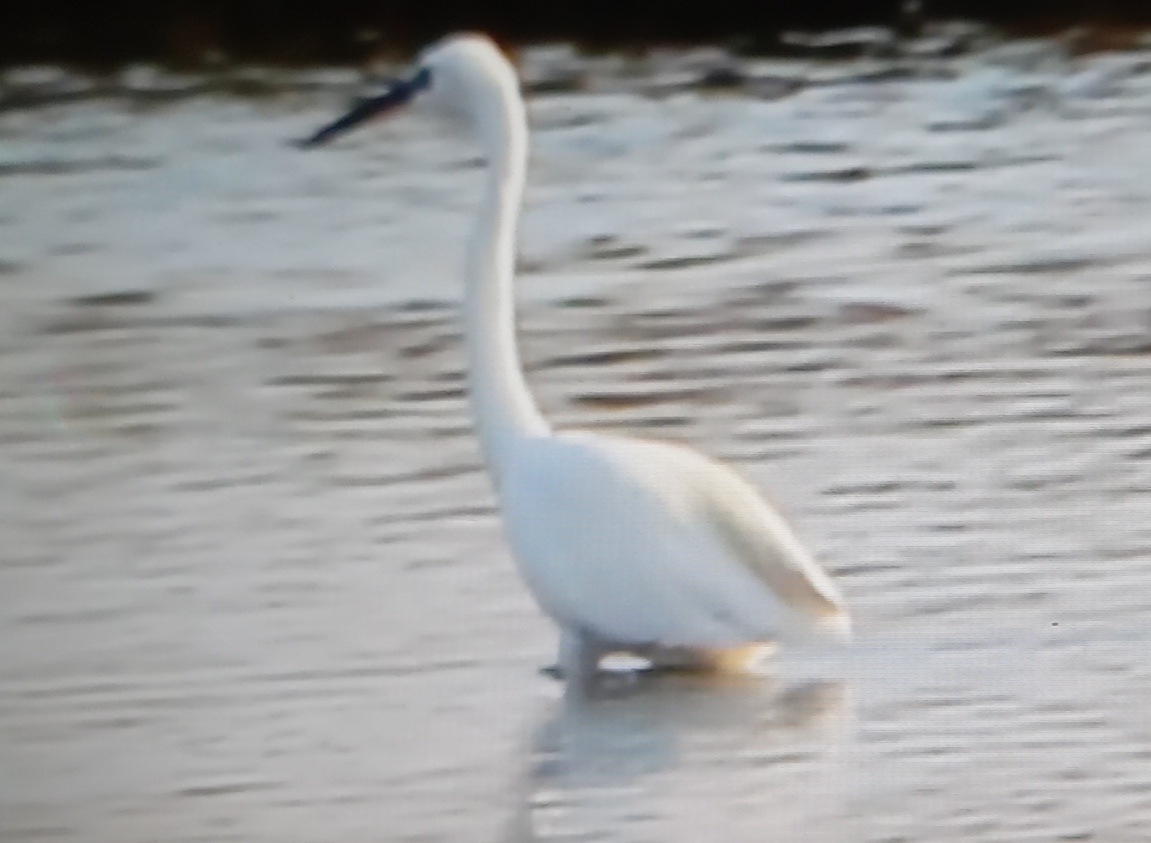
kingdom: Animalia
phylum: Chordata
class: Aves
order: Pelecaniformes
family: Ardeidae
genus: Egretta
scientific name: Egretta garzetta
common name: Little egret
